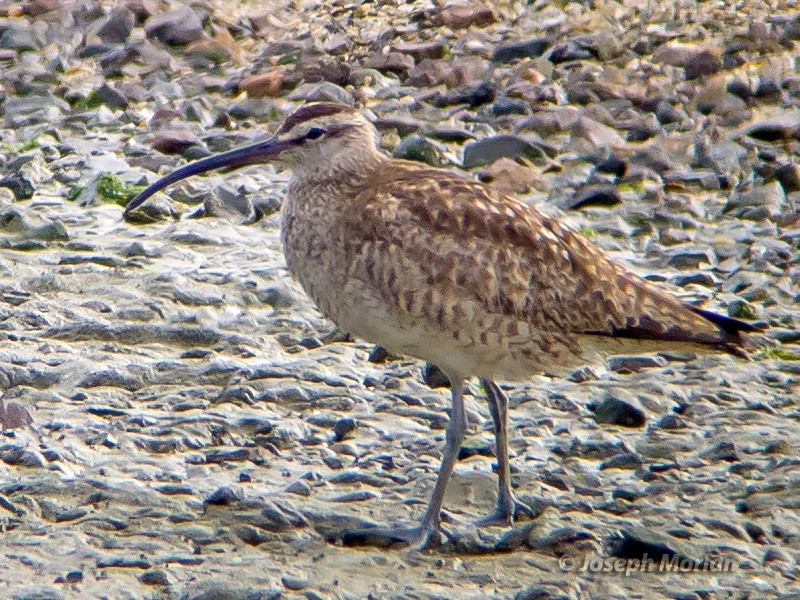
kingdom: Animalia
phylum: Chordata
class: Aves
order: Charadriiformes
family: Scolopacidae
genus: Numenius
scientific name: Numenius phaeopus
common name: Whimbrel
